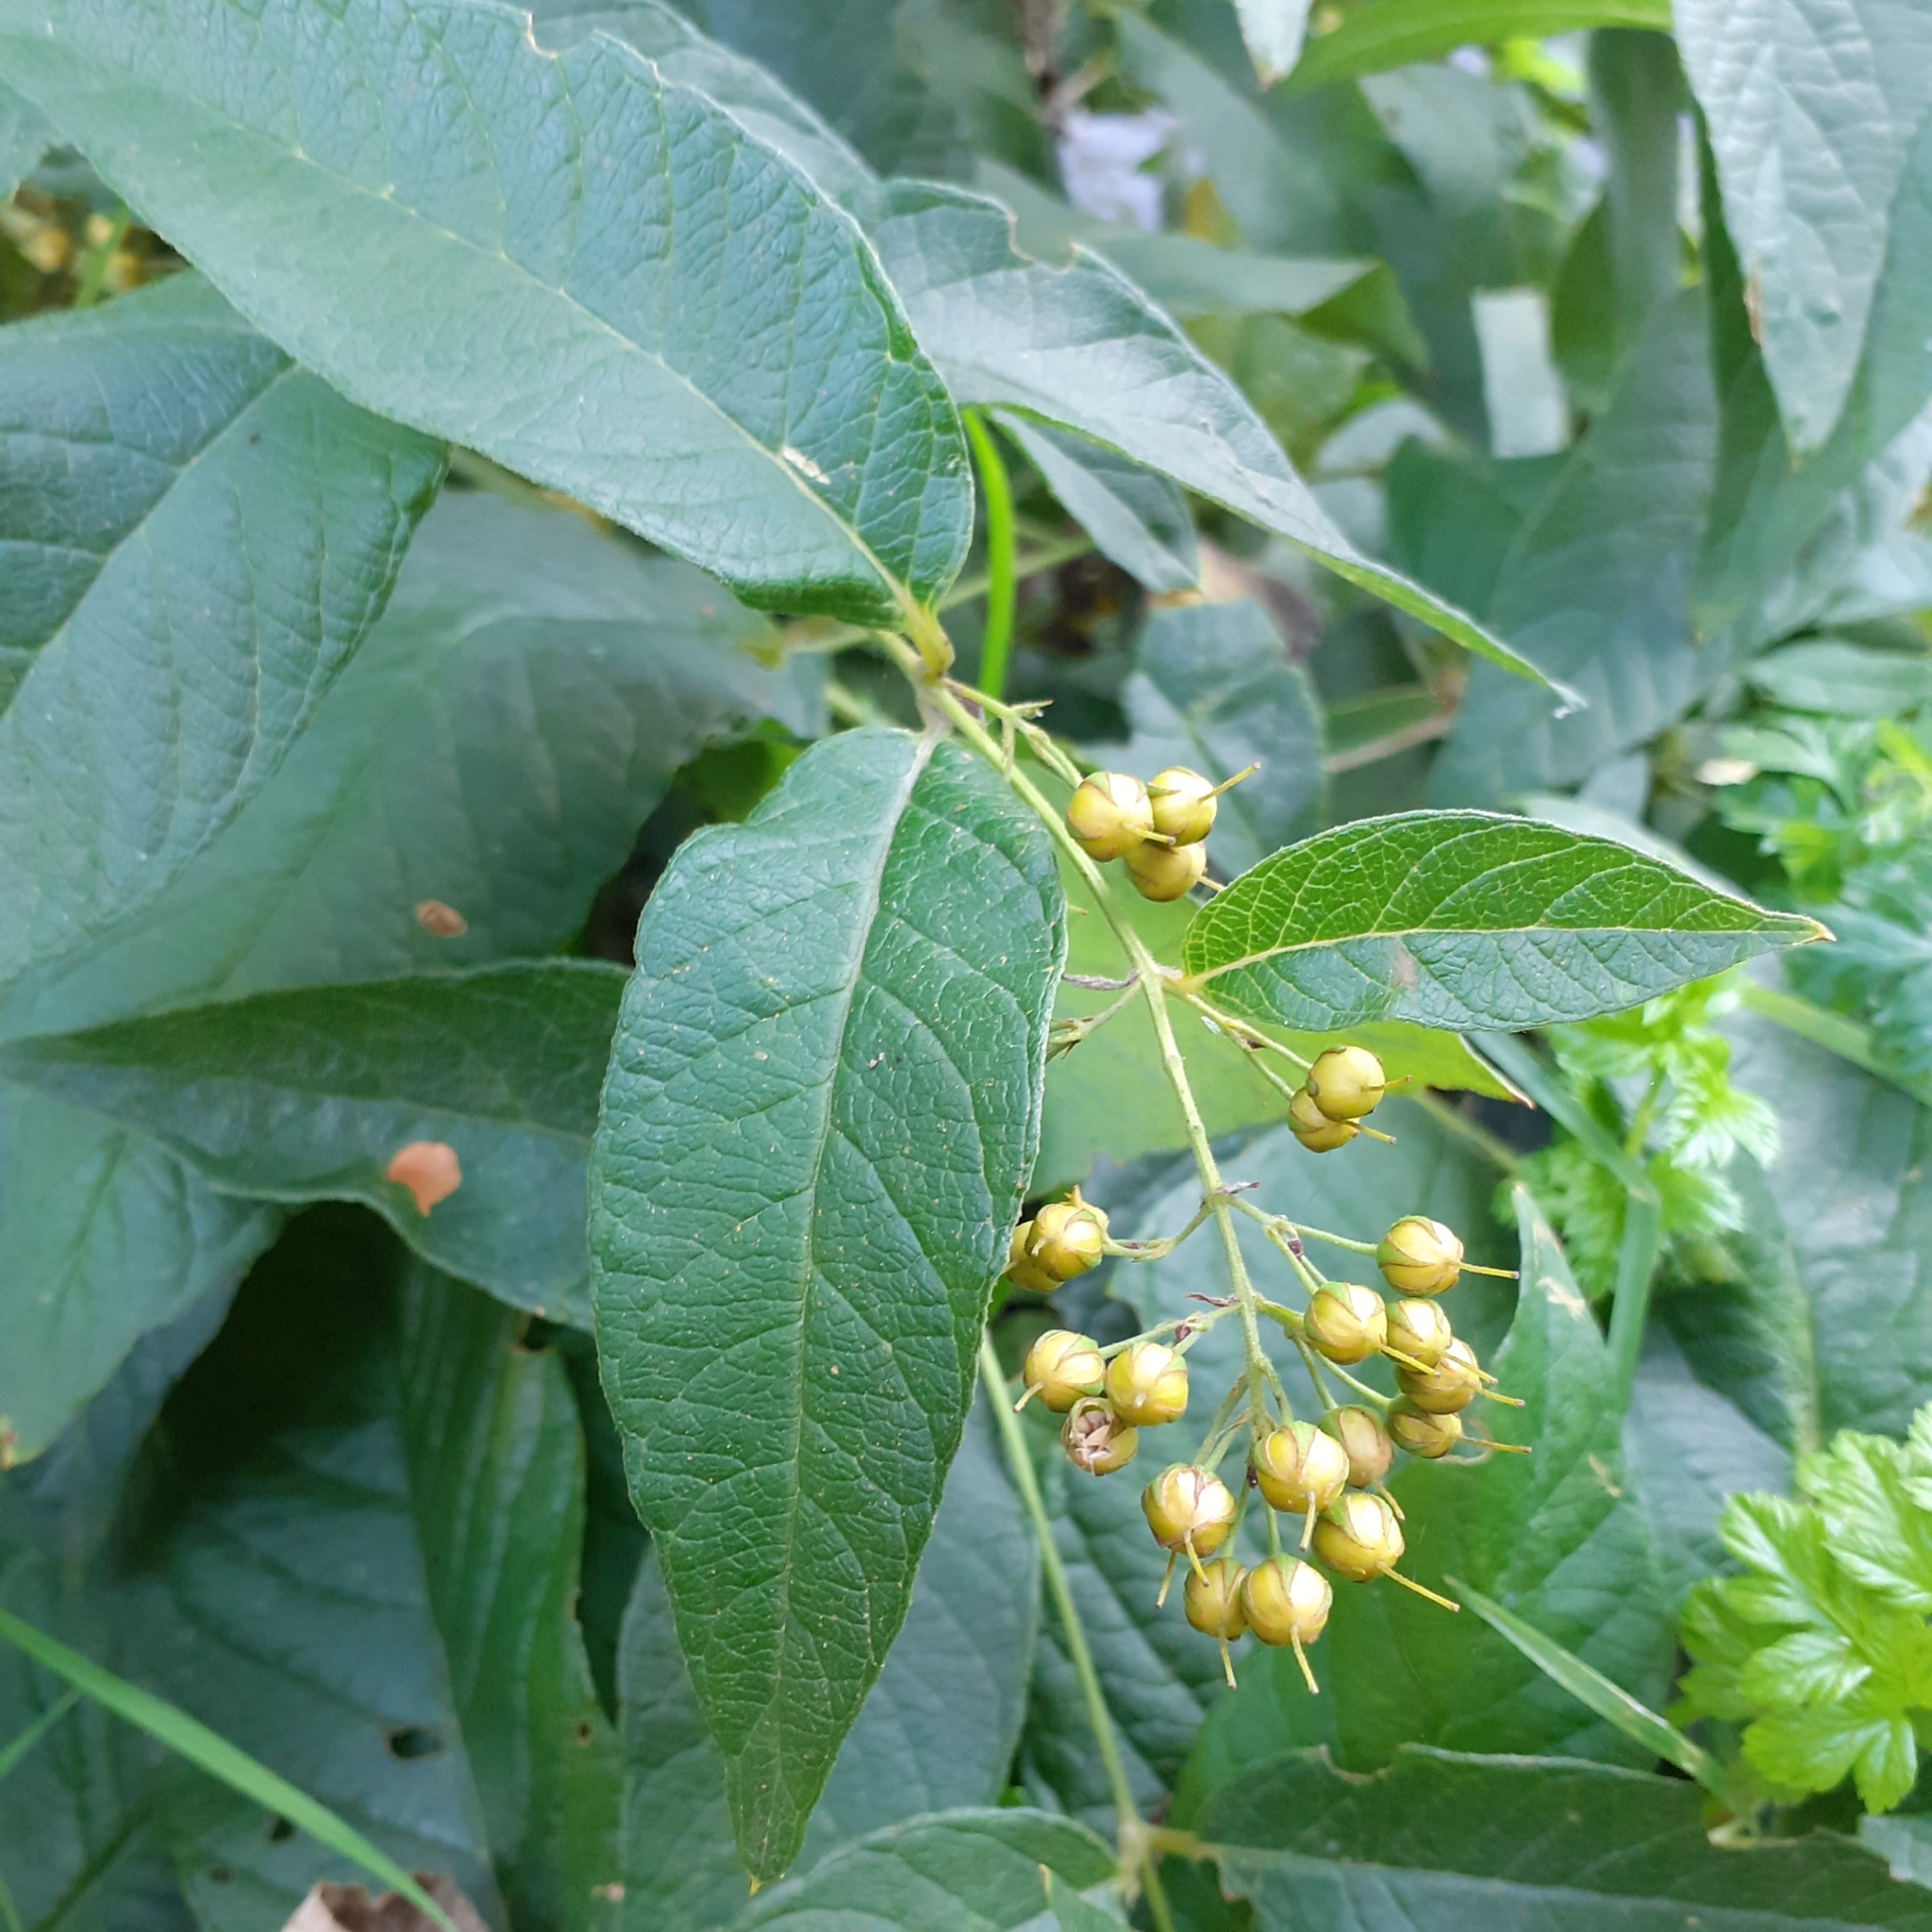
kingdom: Plantae
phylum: Tracheophyta
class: Magnoliopsida
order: Ericales
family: Primulaceae
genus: Lysimachia
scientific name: Lysimachia vulgaris
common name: Yellow loosestrife
